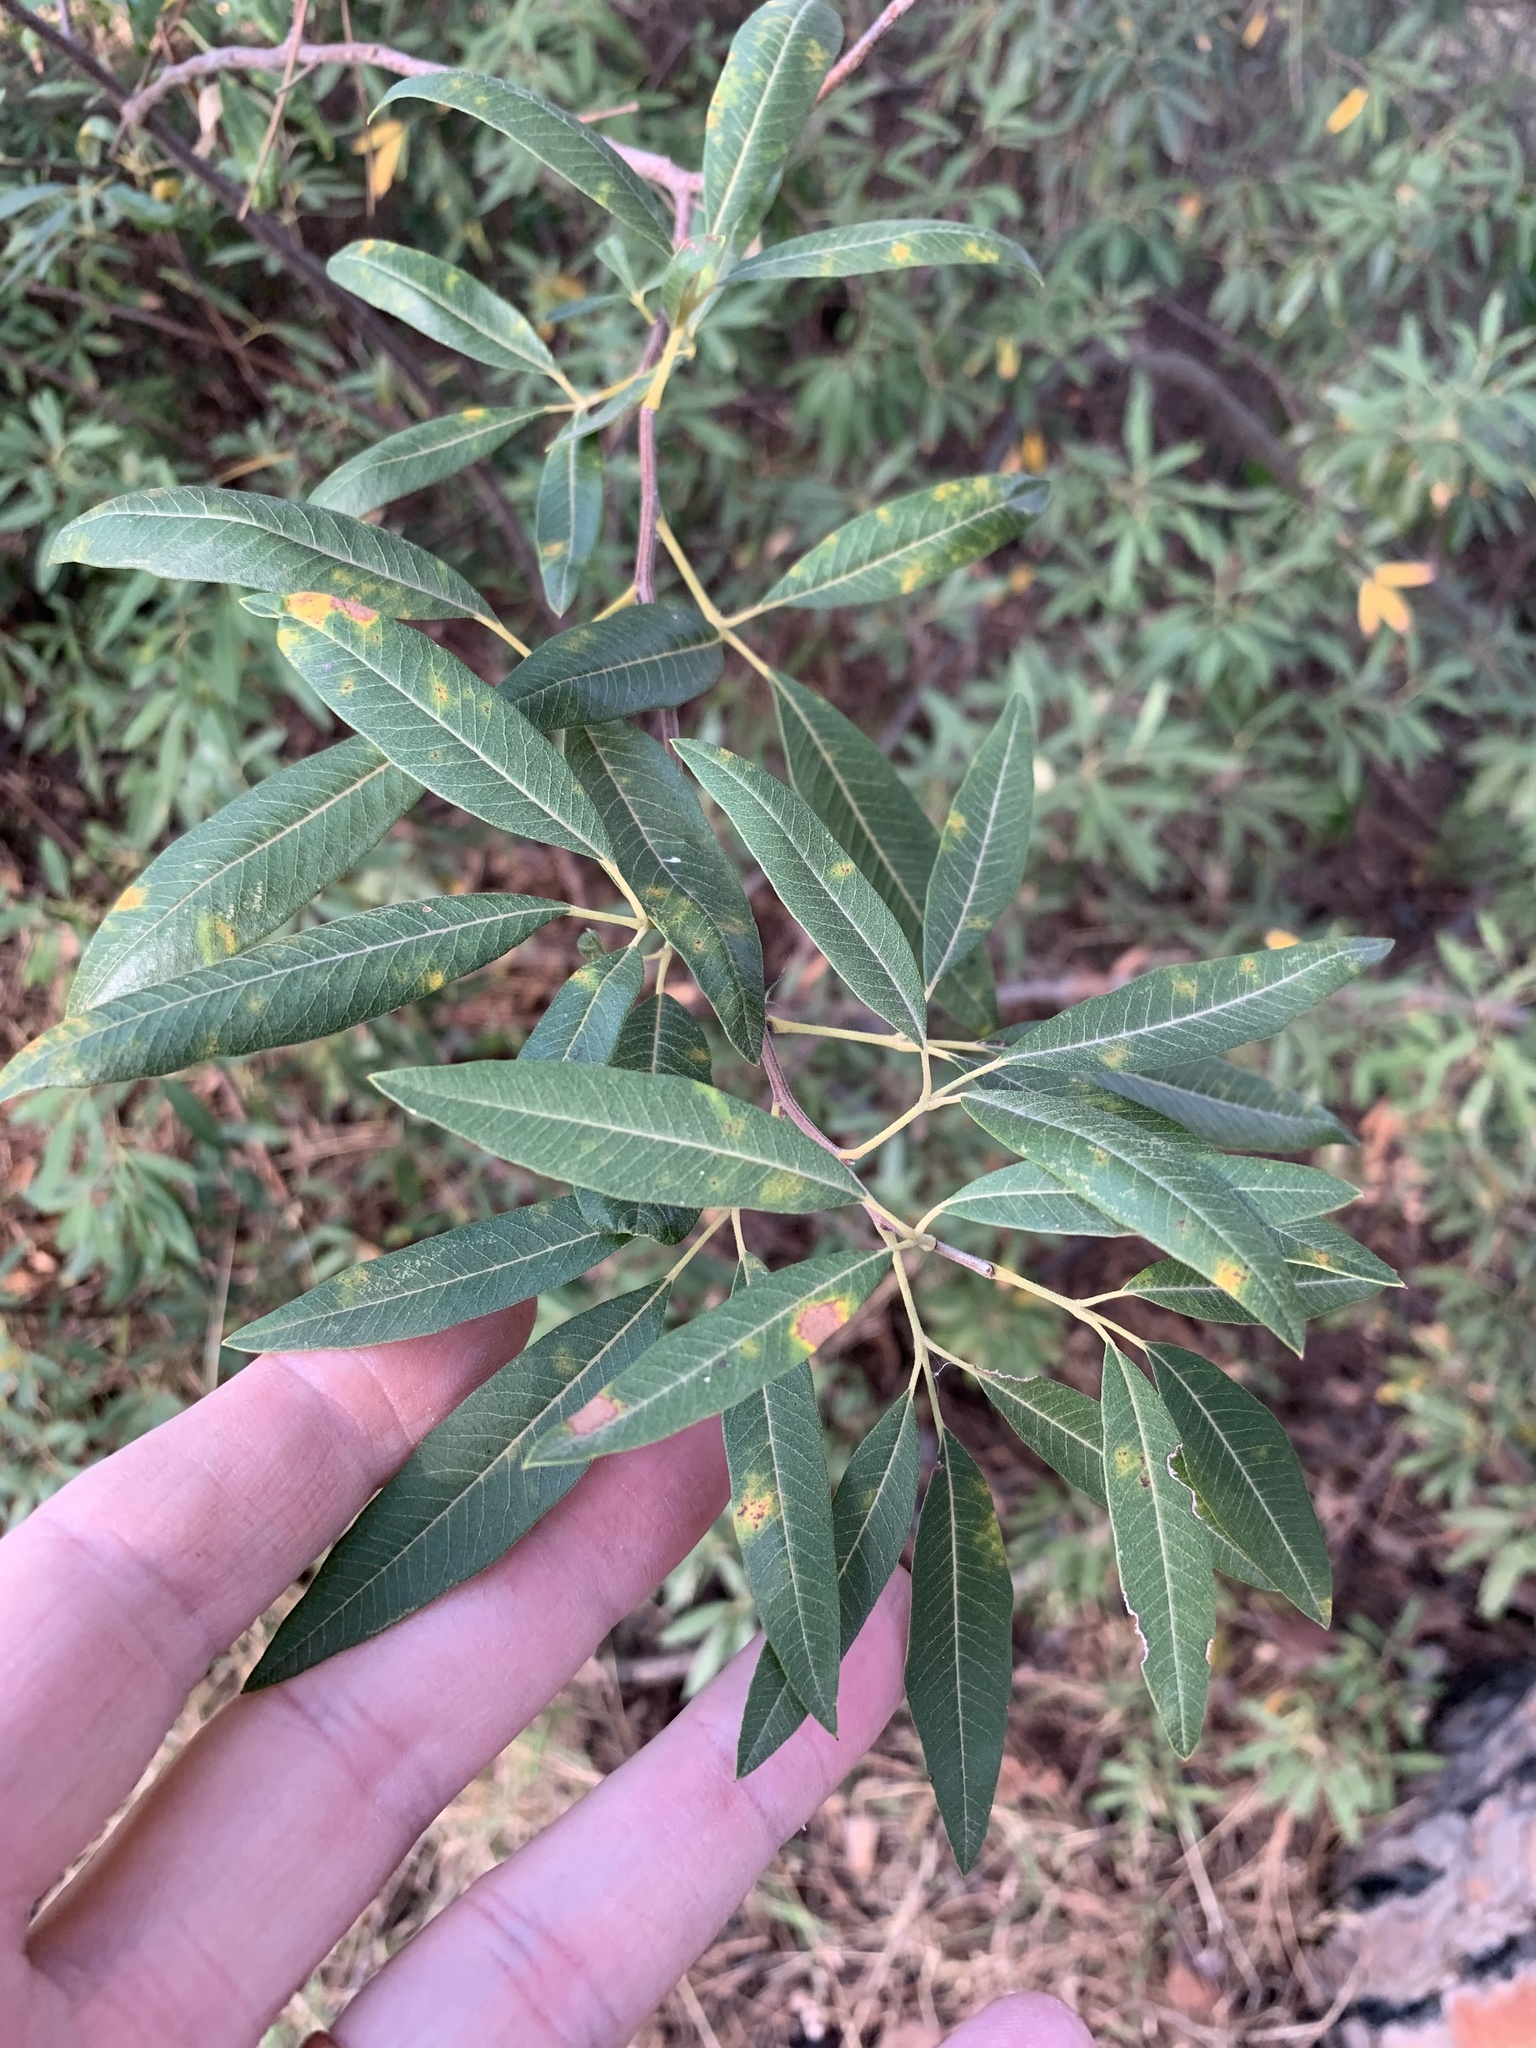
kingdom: Plantae
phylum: Tracheophyta
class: Magnoliopsida
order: Sapindales
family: Anacardiaceae
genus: Searsia
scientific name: Searsia angustifolia
